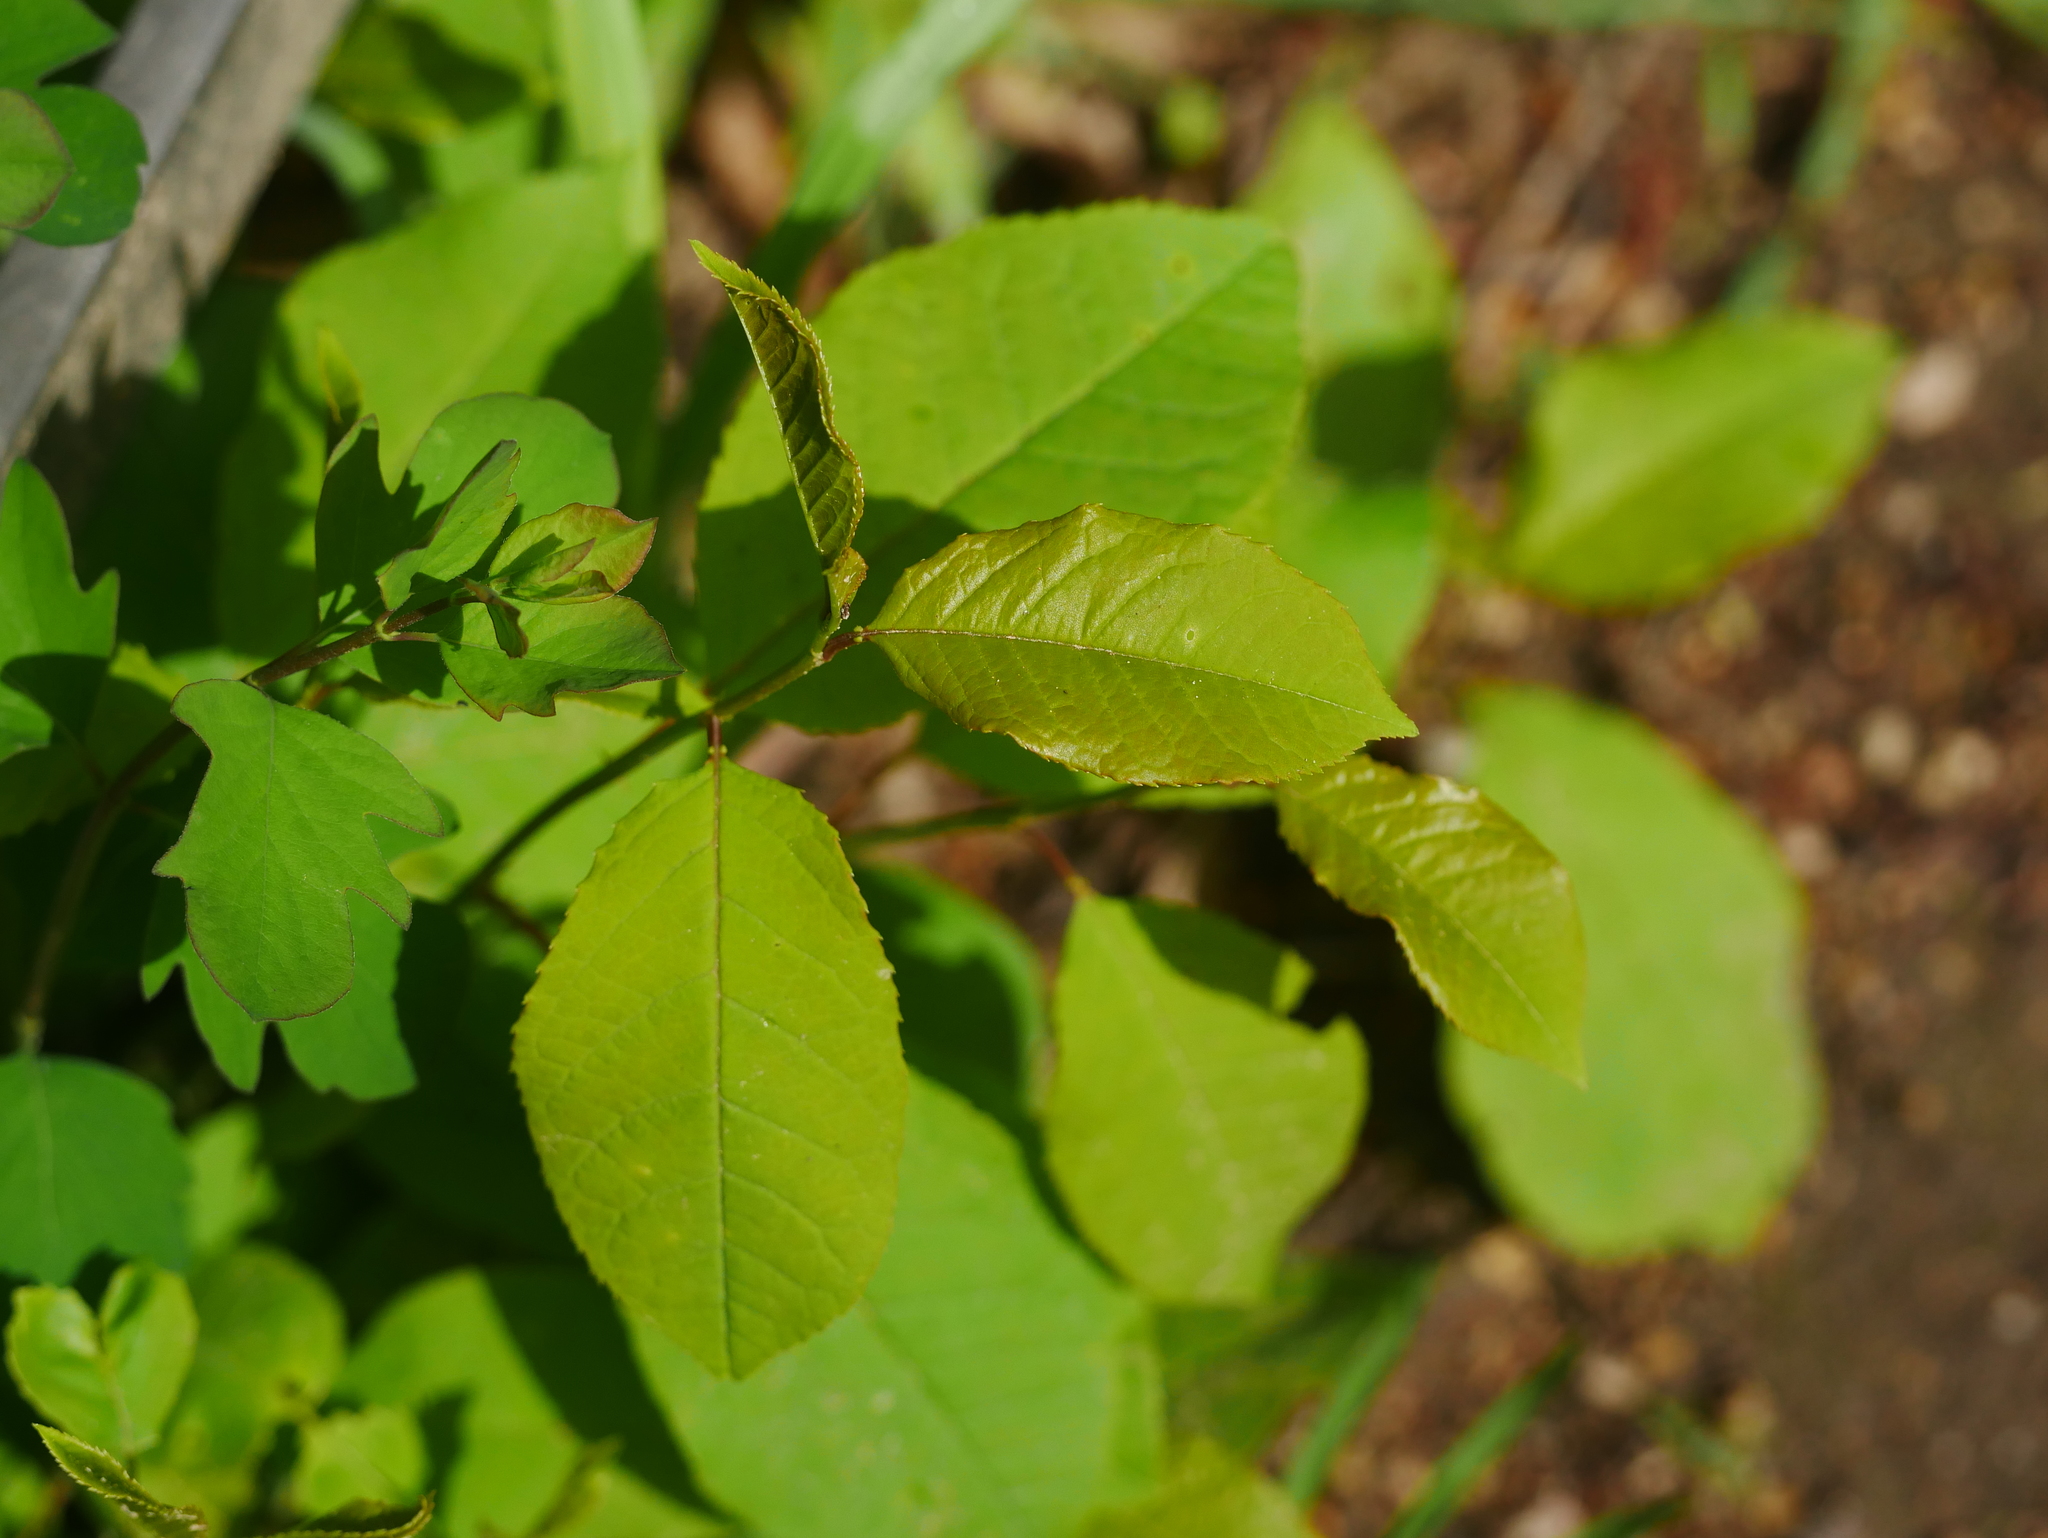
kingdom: Plantae
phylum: Tracheophyta
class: Magnoliopsida
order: Rosales
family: Rosaceae
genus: Prunus
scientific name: Prunus padus
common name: Bird cherry
